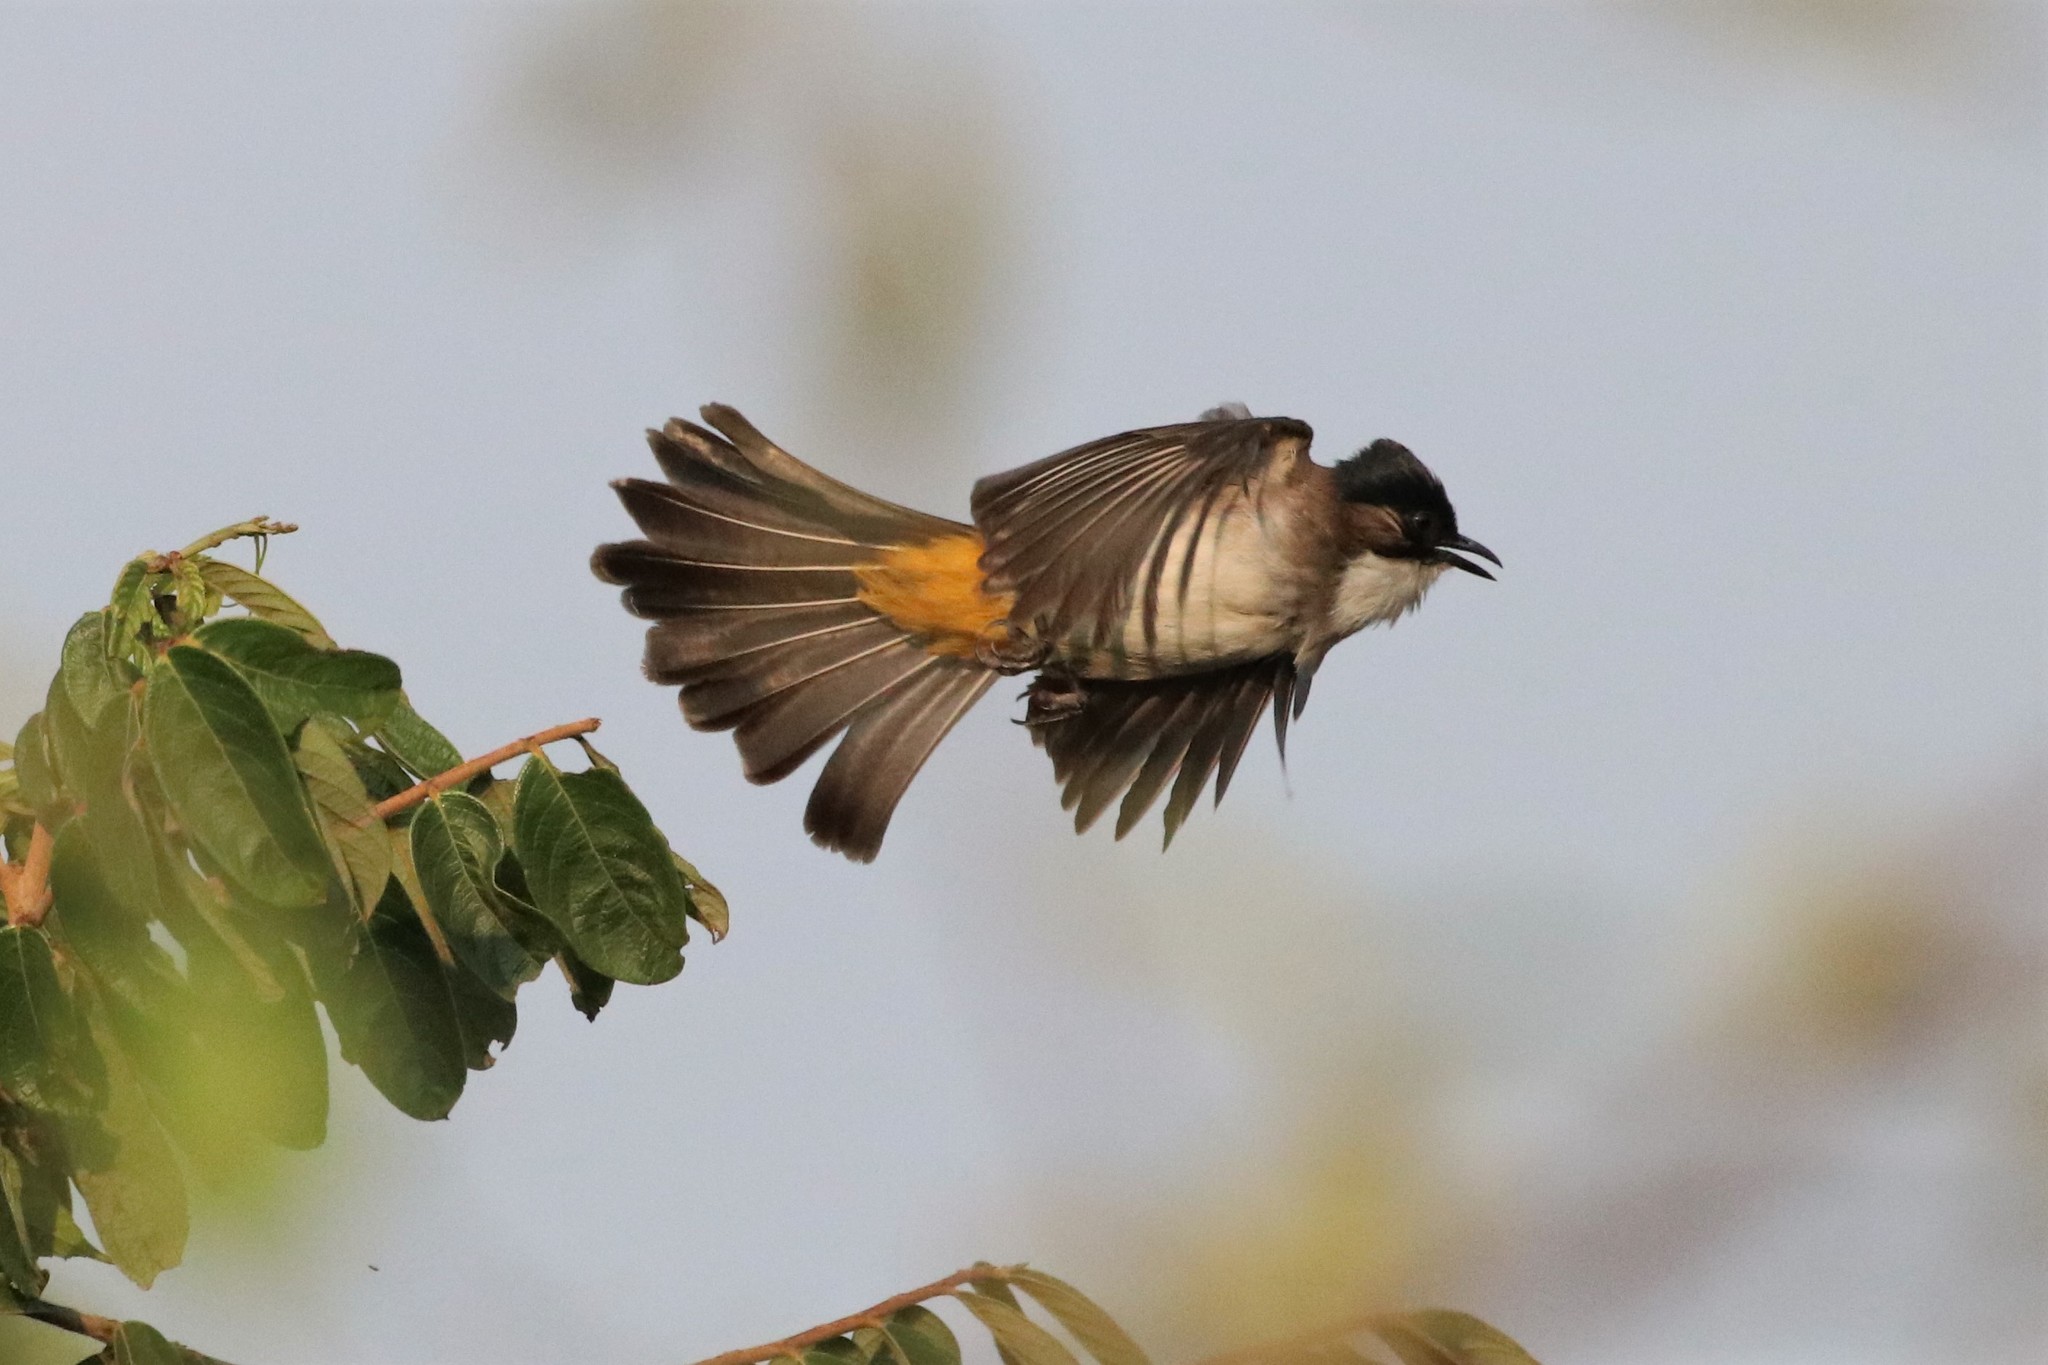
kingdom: Animalia
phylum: Chordata
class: Aves
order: Passeriformes
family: Pycnonotidae
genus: Pycnonotus
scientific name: Pycnonotus xanthorrhous
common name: Brown-breasted bulbul
